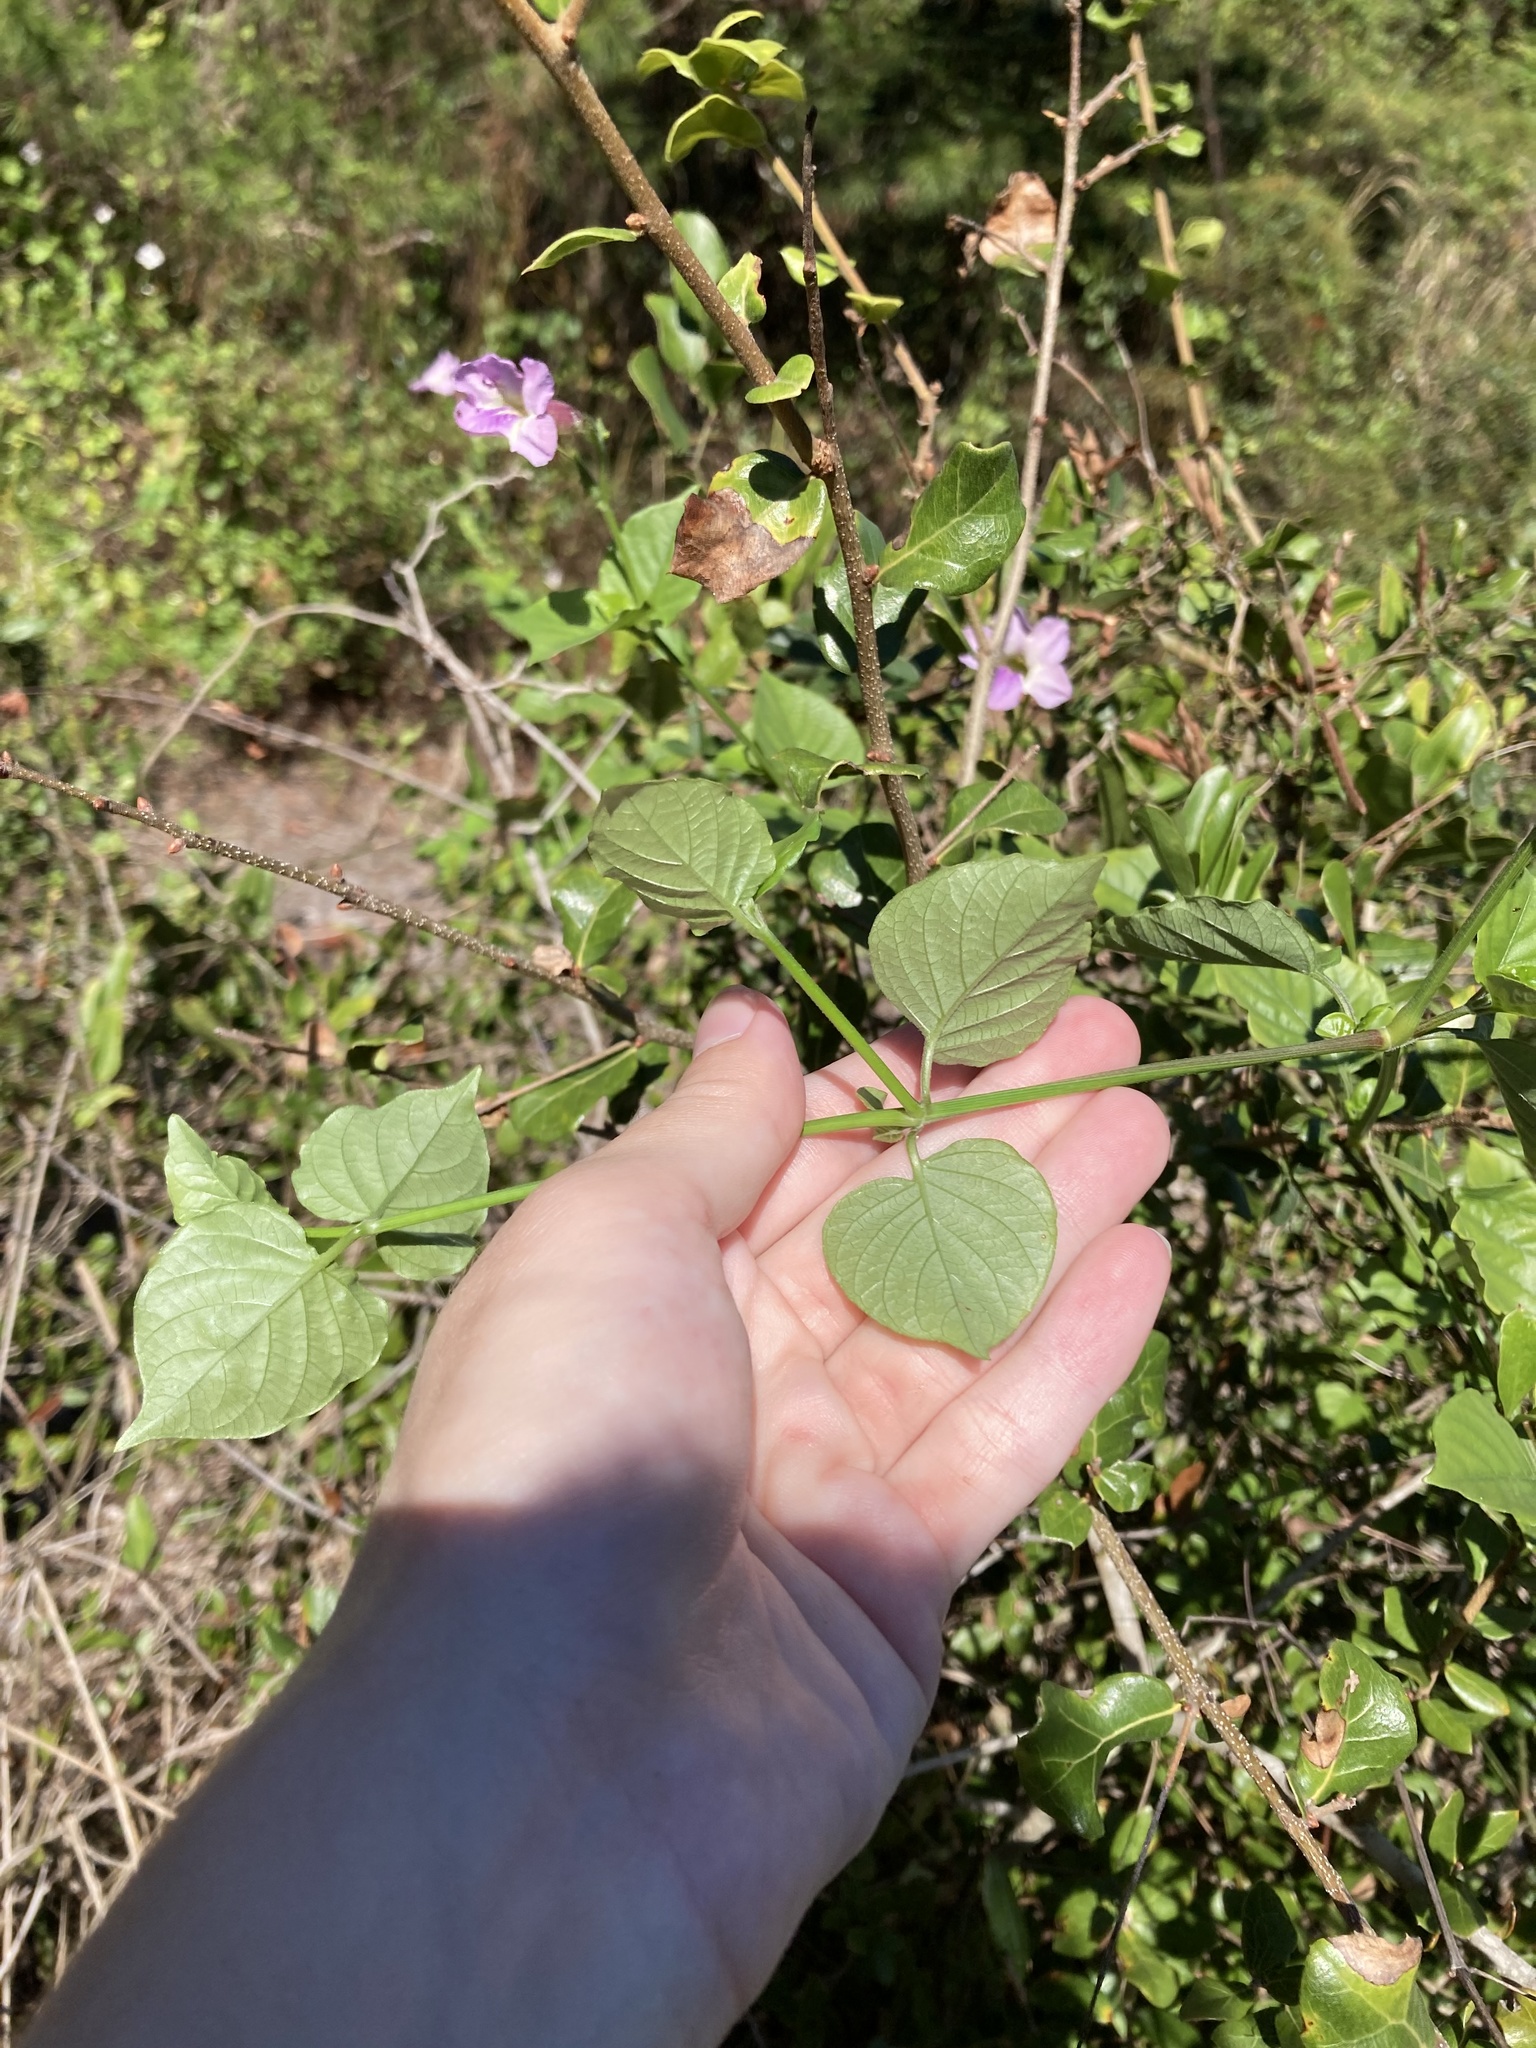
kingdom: Plantae
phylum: Tracheophyta
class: Magnoliopsida
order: Lamiales
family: Acanthaceae
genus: Asystasia
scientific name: Asystasia gangetica
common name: Chinese violet
